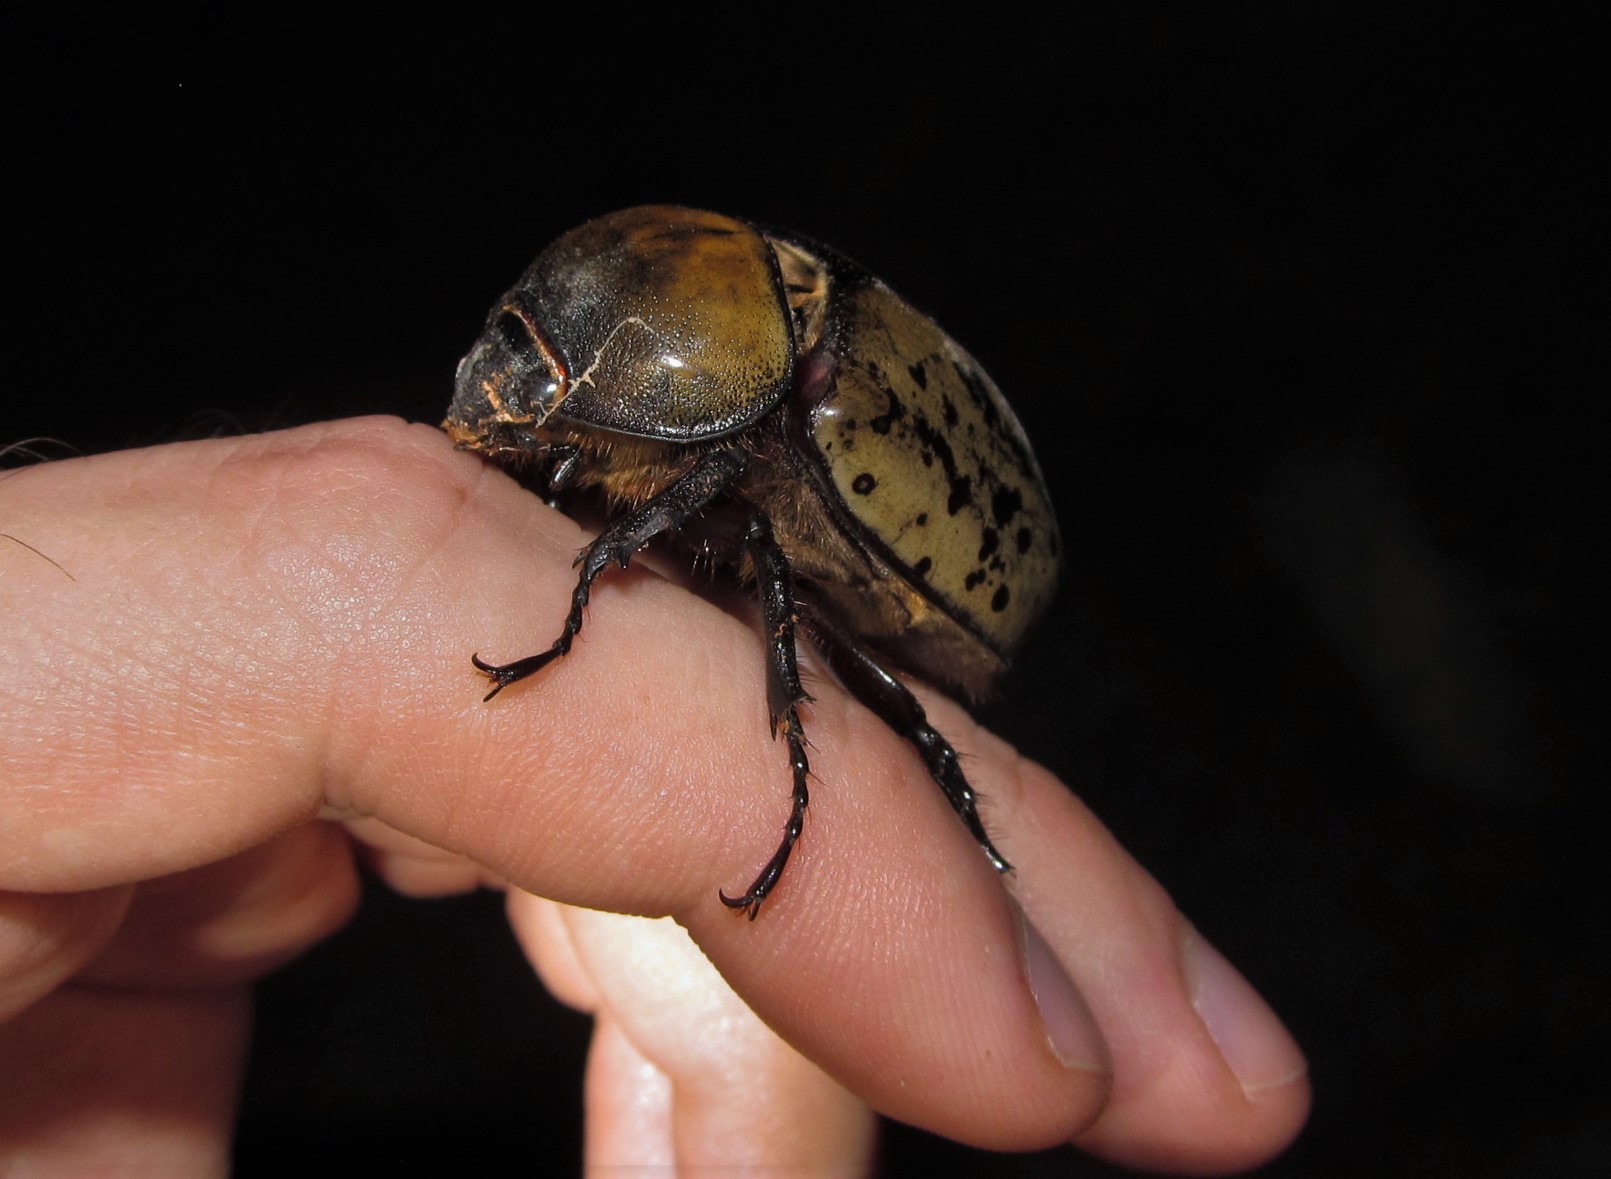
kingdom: Animalia
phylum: Arthropoda
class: Insecta
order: Coleoptera
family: Scarabaeidae
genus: Dynastes
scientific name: Dynastes tityus
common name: Eastern hercules beetle
